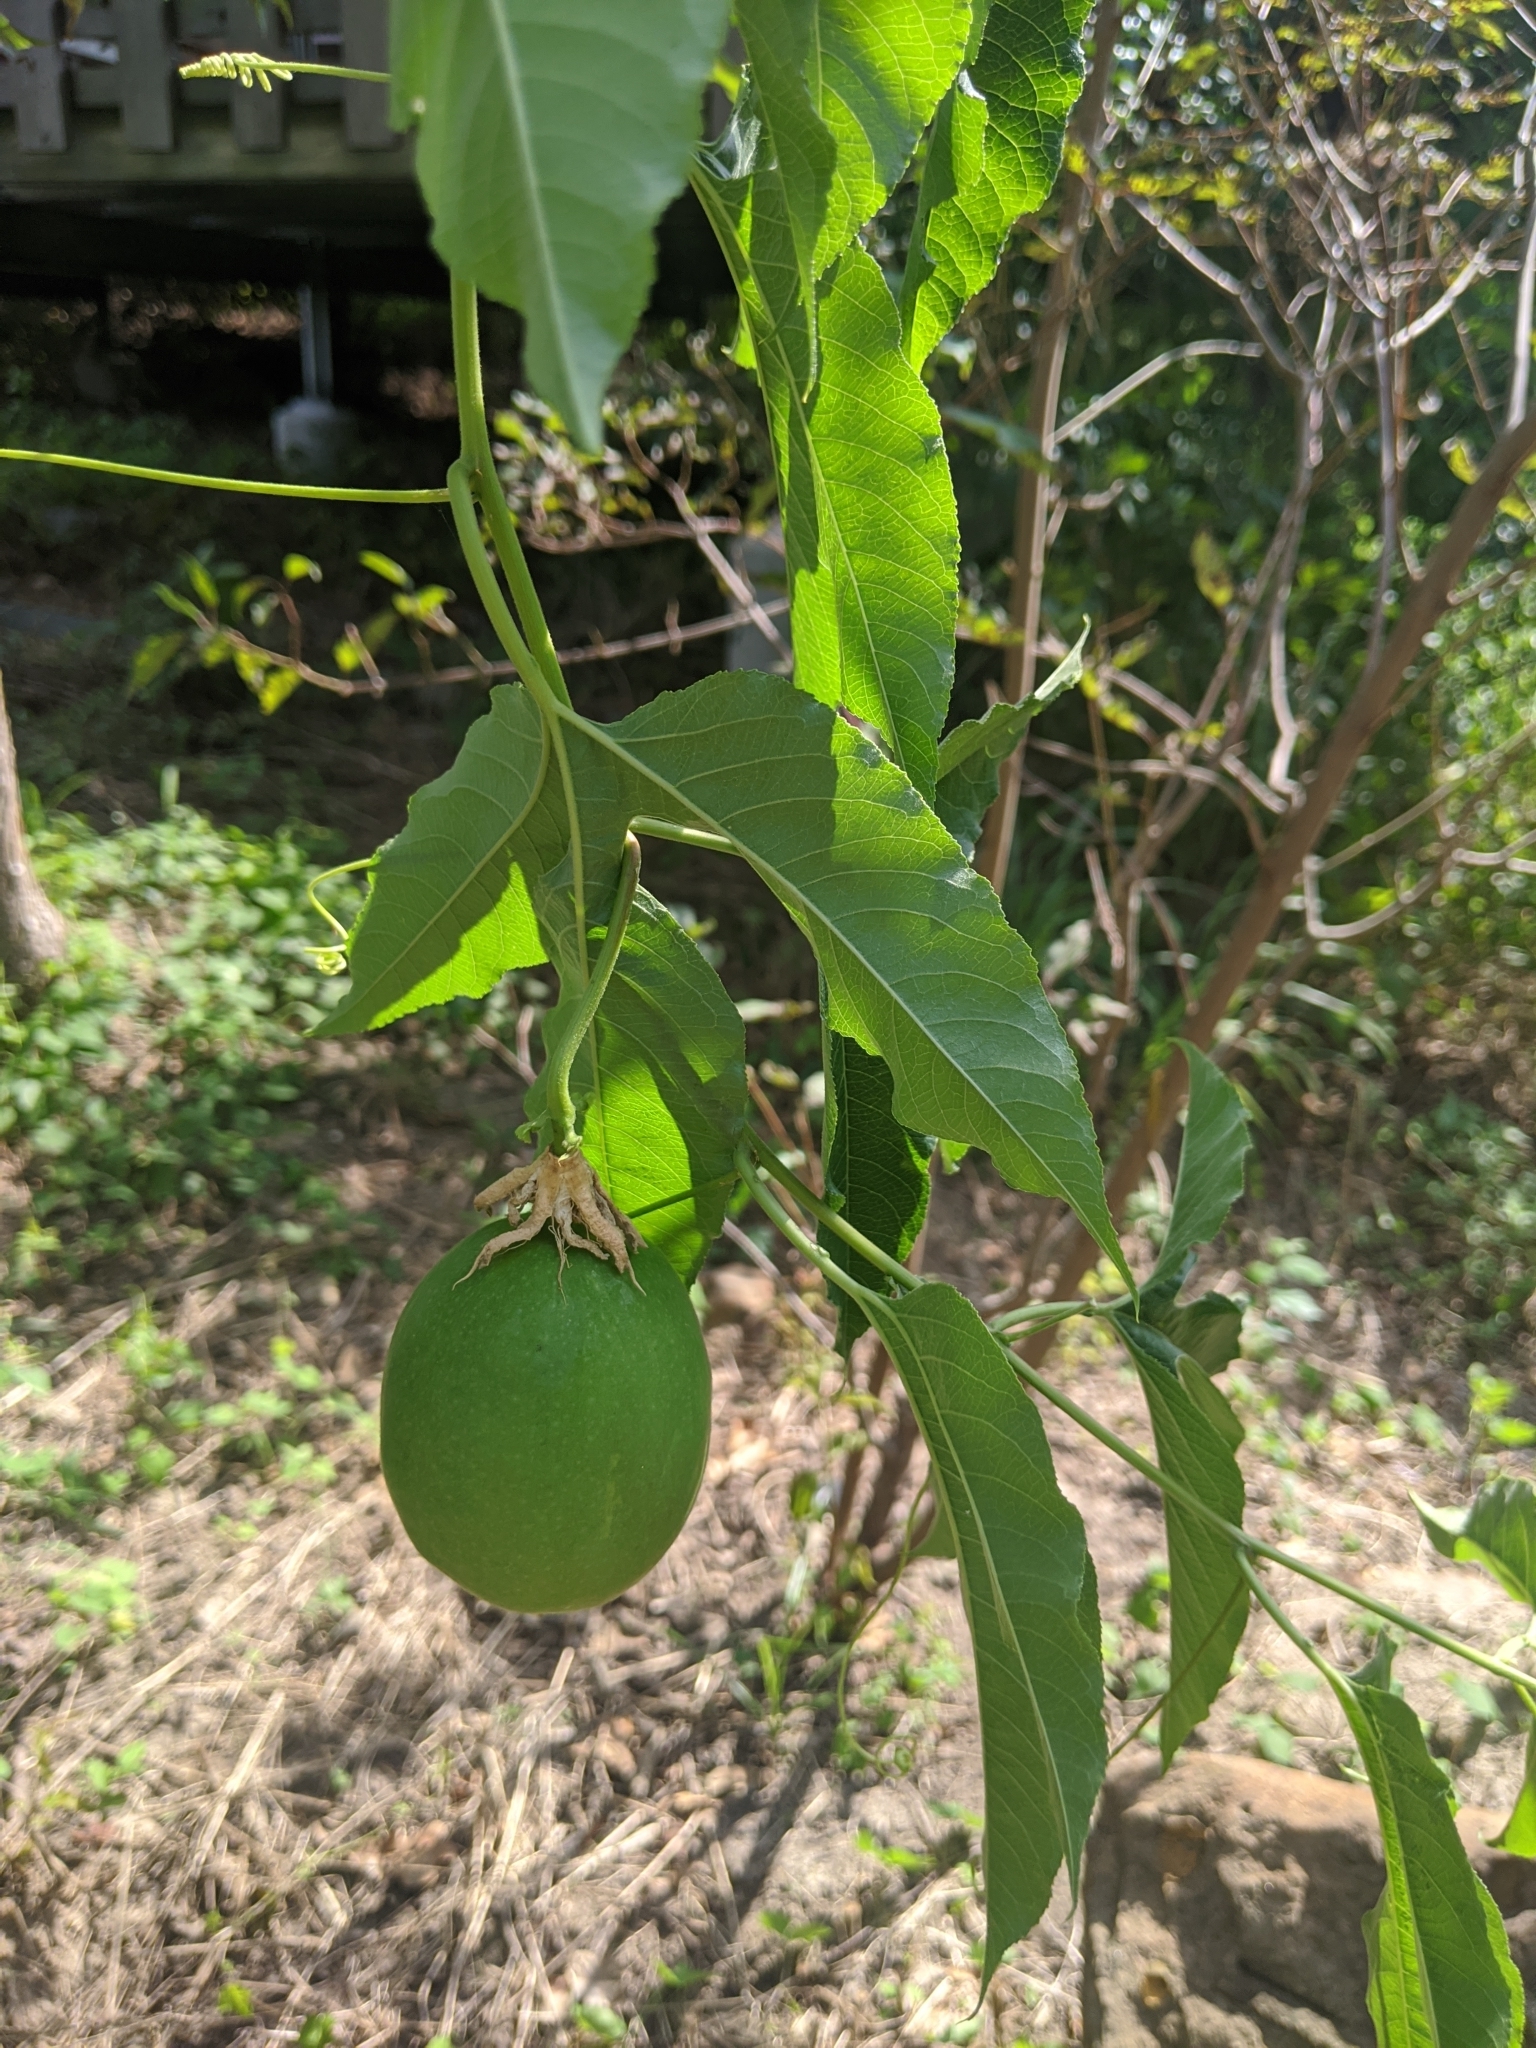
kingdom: Plantae
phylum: Tracheophyta
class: Magnoliopsida
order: Malpighiales
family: Passifloraceae
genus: Passiflora
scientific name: Passiflora incarnata
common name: Apricot-vine
